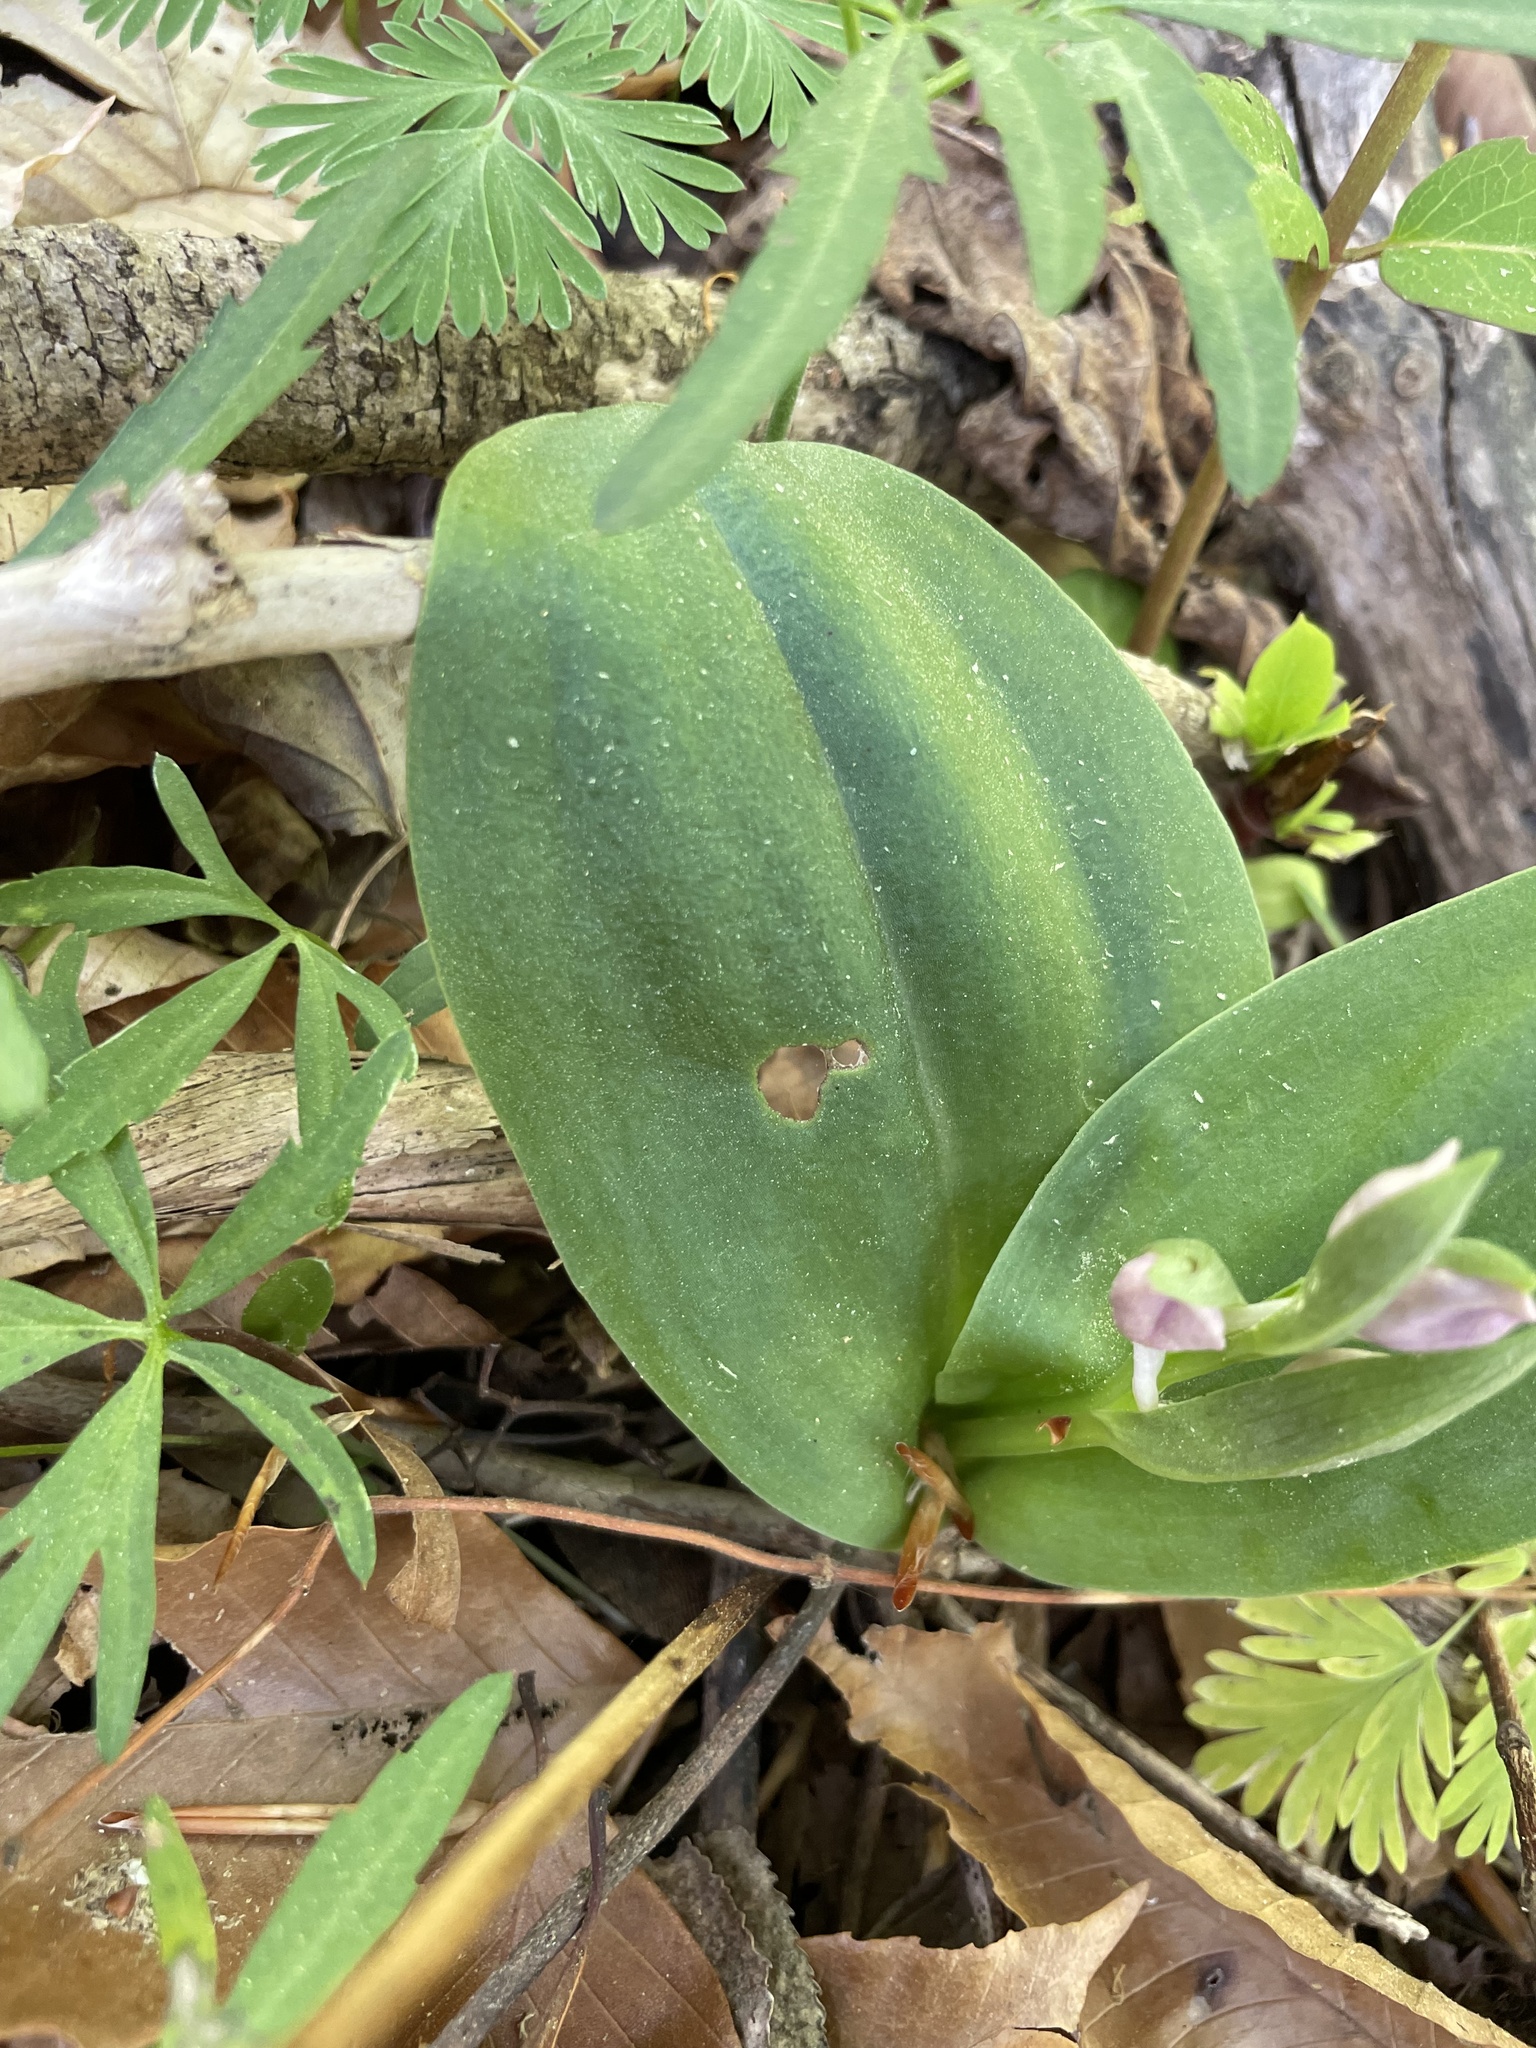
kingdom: Plantae
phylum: Tracheophyta
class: Liliopsida
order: Asparagales
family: Orchidaceae
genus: Galearis
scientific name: Galearis spectabilis
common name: Purple-hooded orchis
